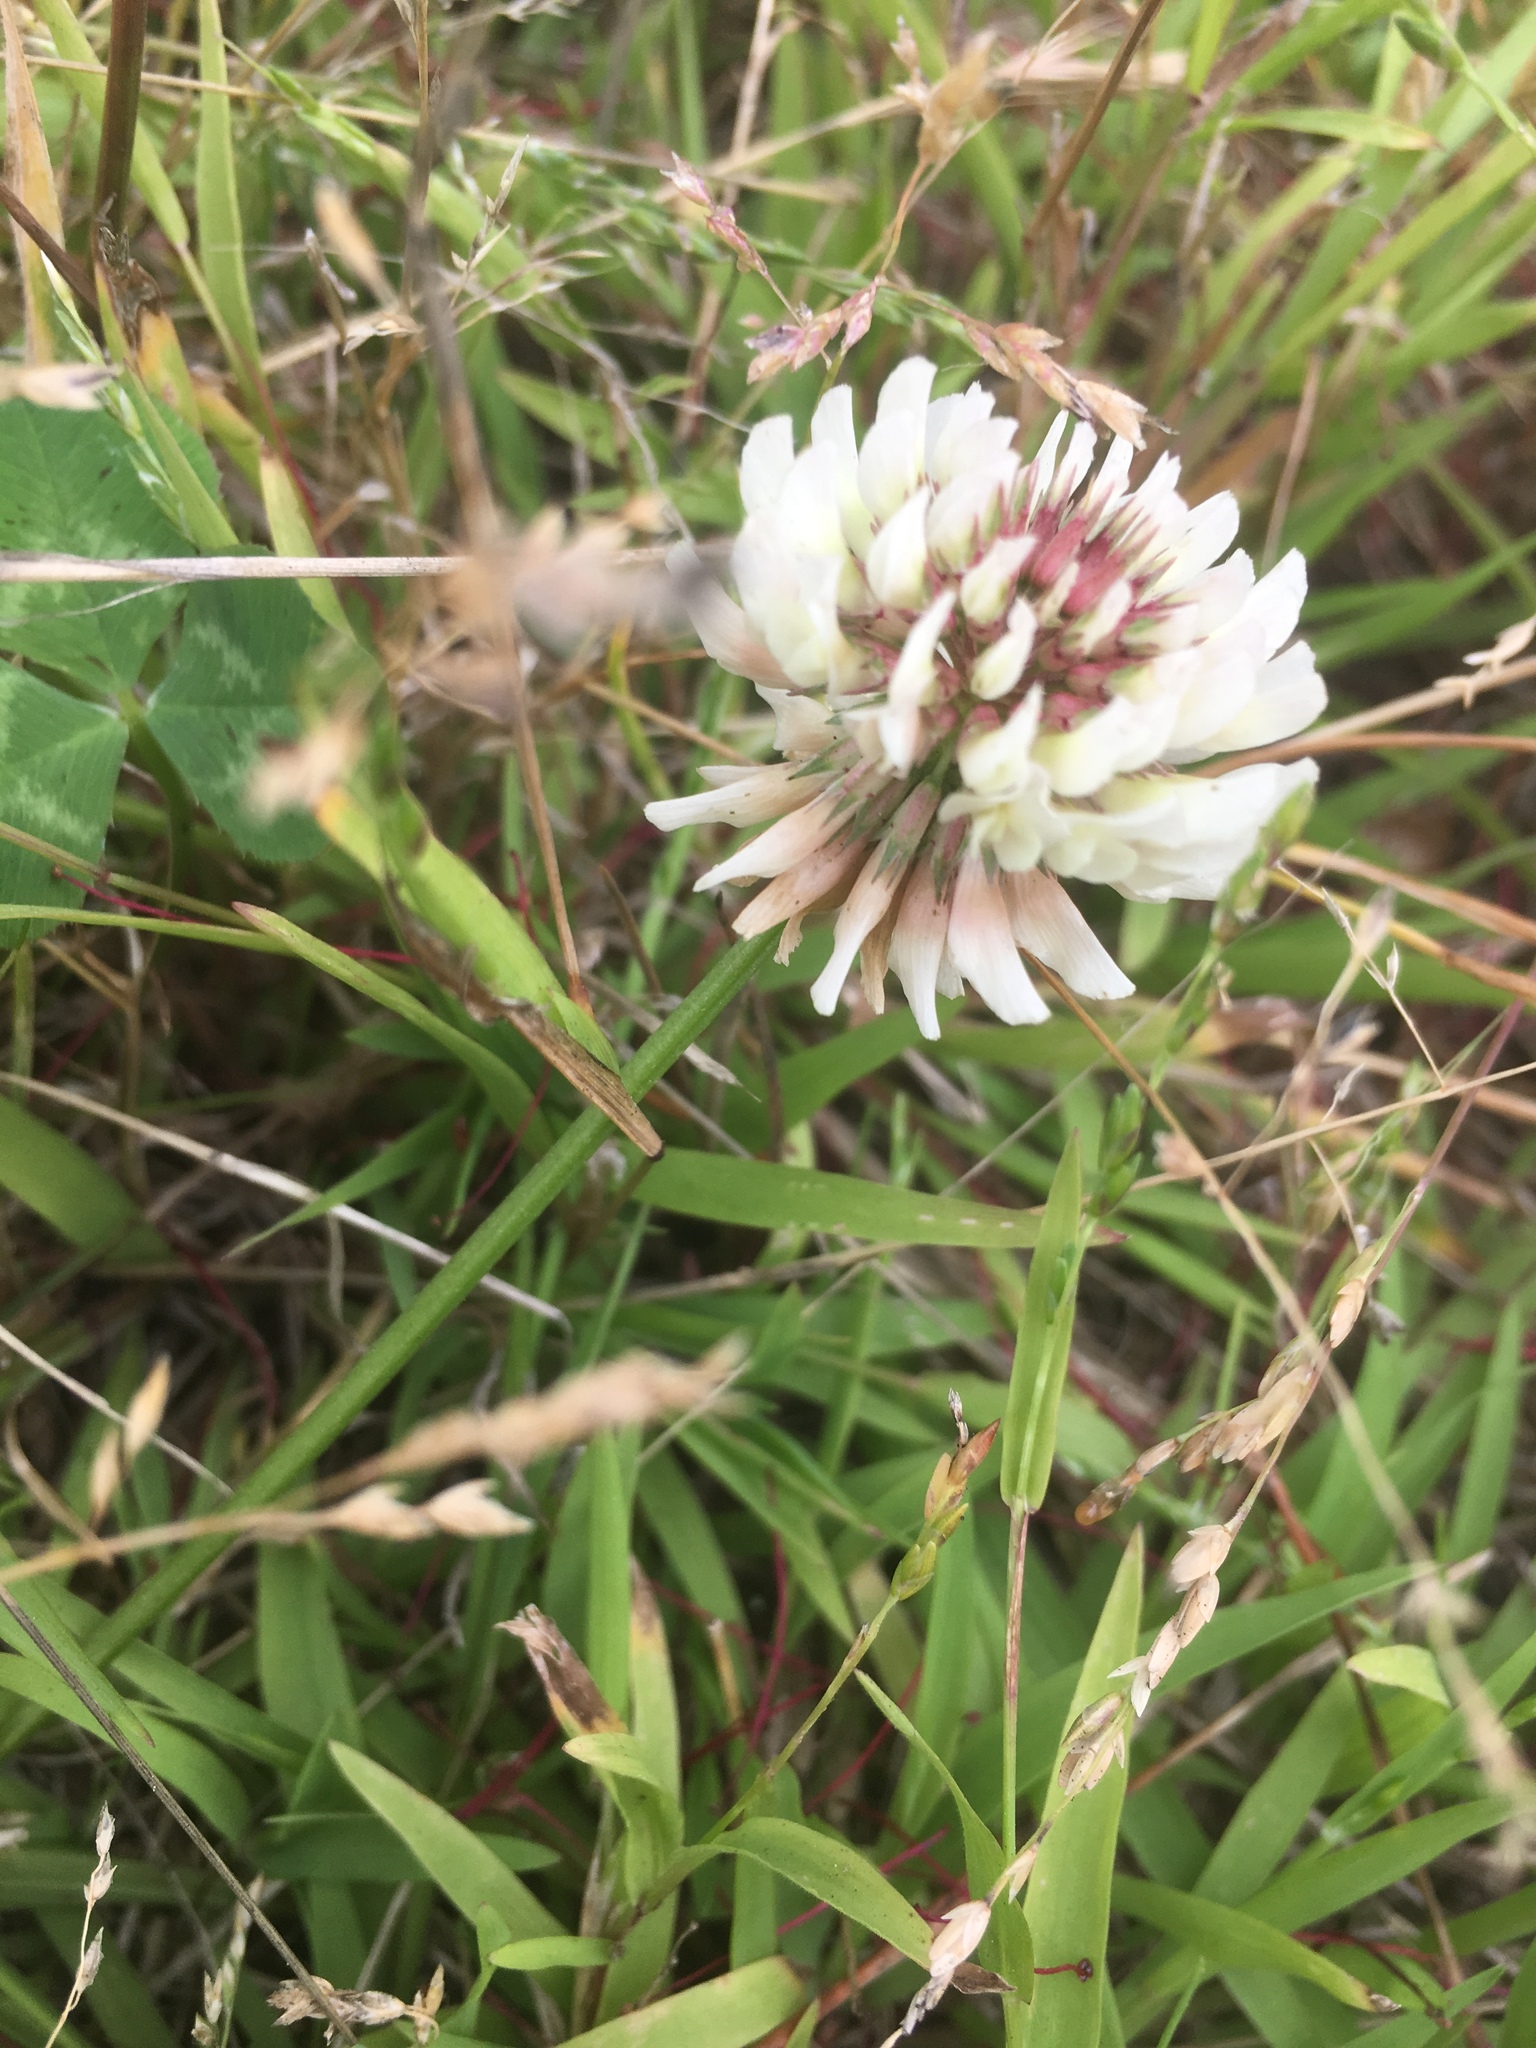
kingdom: Plantae
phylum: Tracheophyta
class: Magnoliopsida
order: Fabales
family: Fabaceae
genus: Trifolium
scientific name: Trifolium repens
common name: White clover
